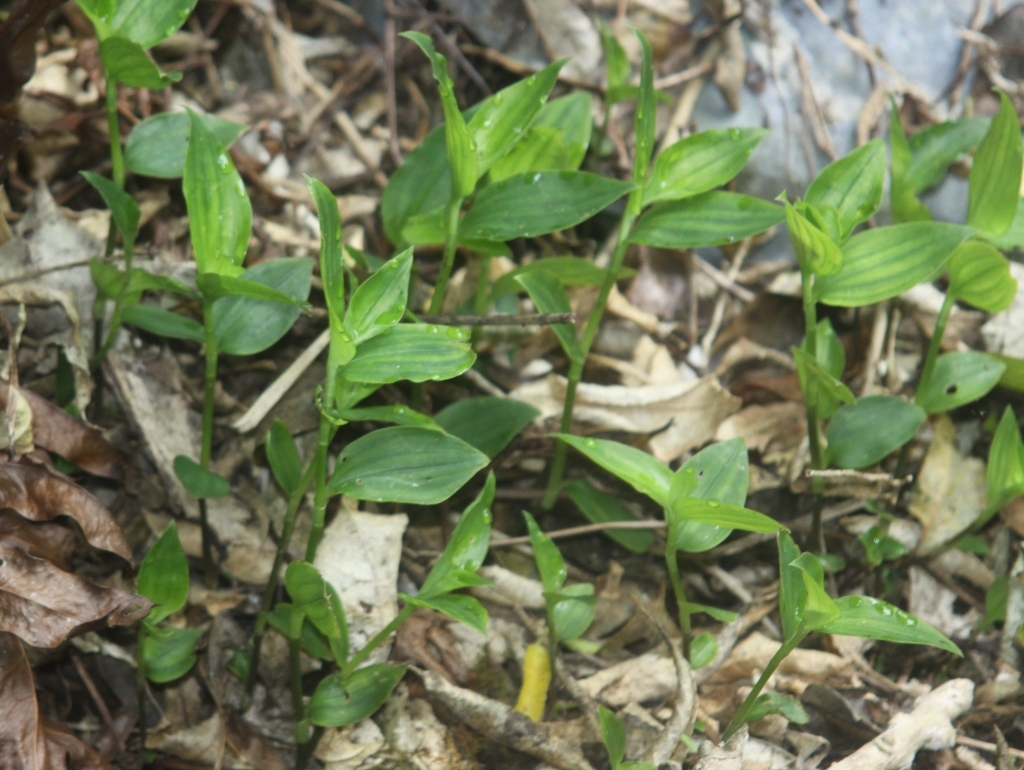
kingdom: Plantae
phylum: Tracheophyta
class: Liliopsida
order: Commelinales
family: Commelinaceae
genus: Tradescantia
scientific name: Tradescantia fluminensis
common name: Wandering-jew
